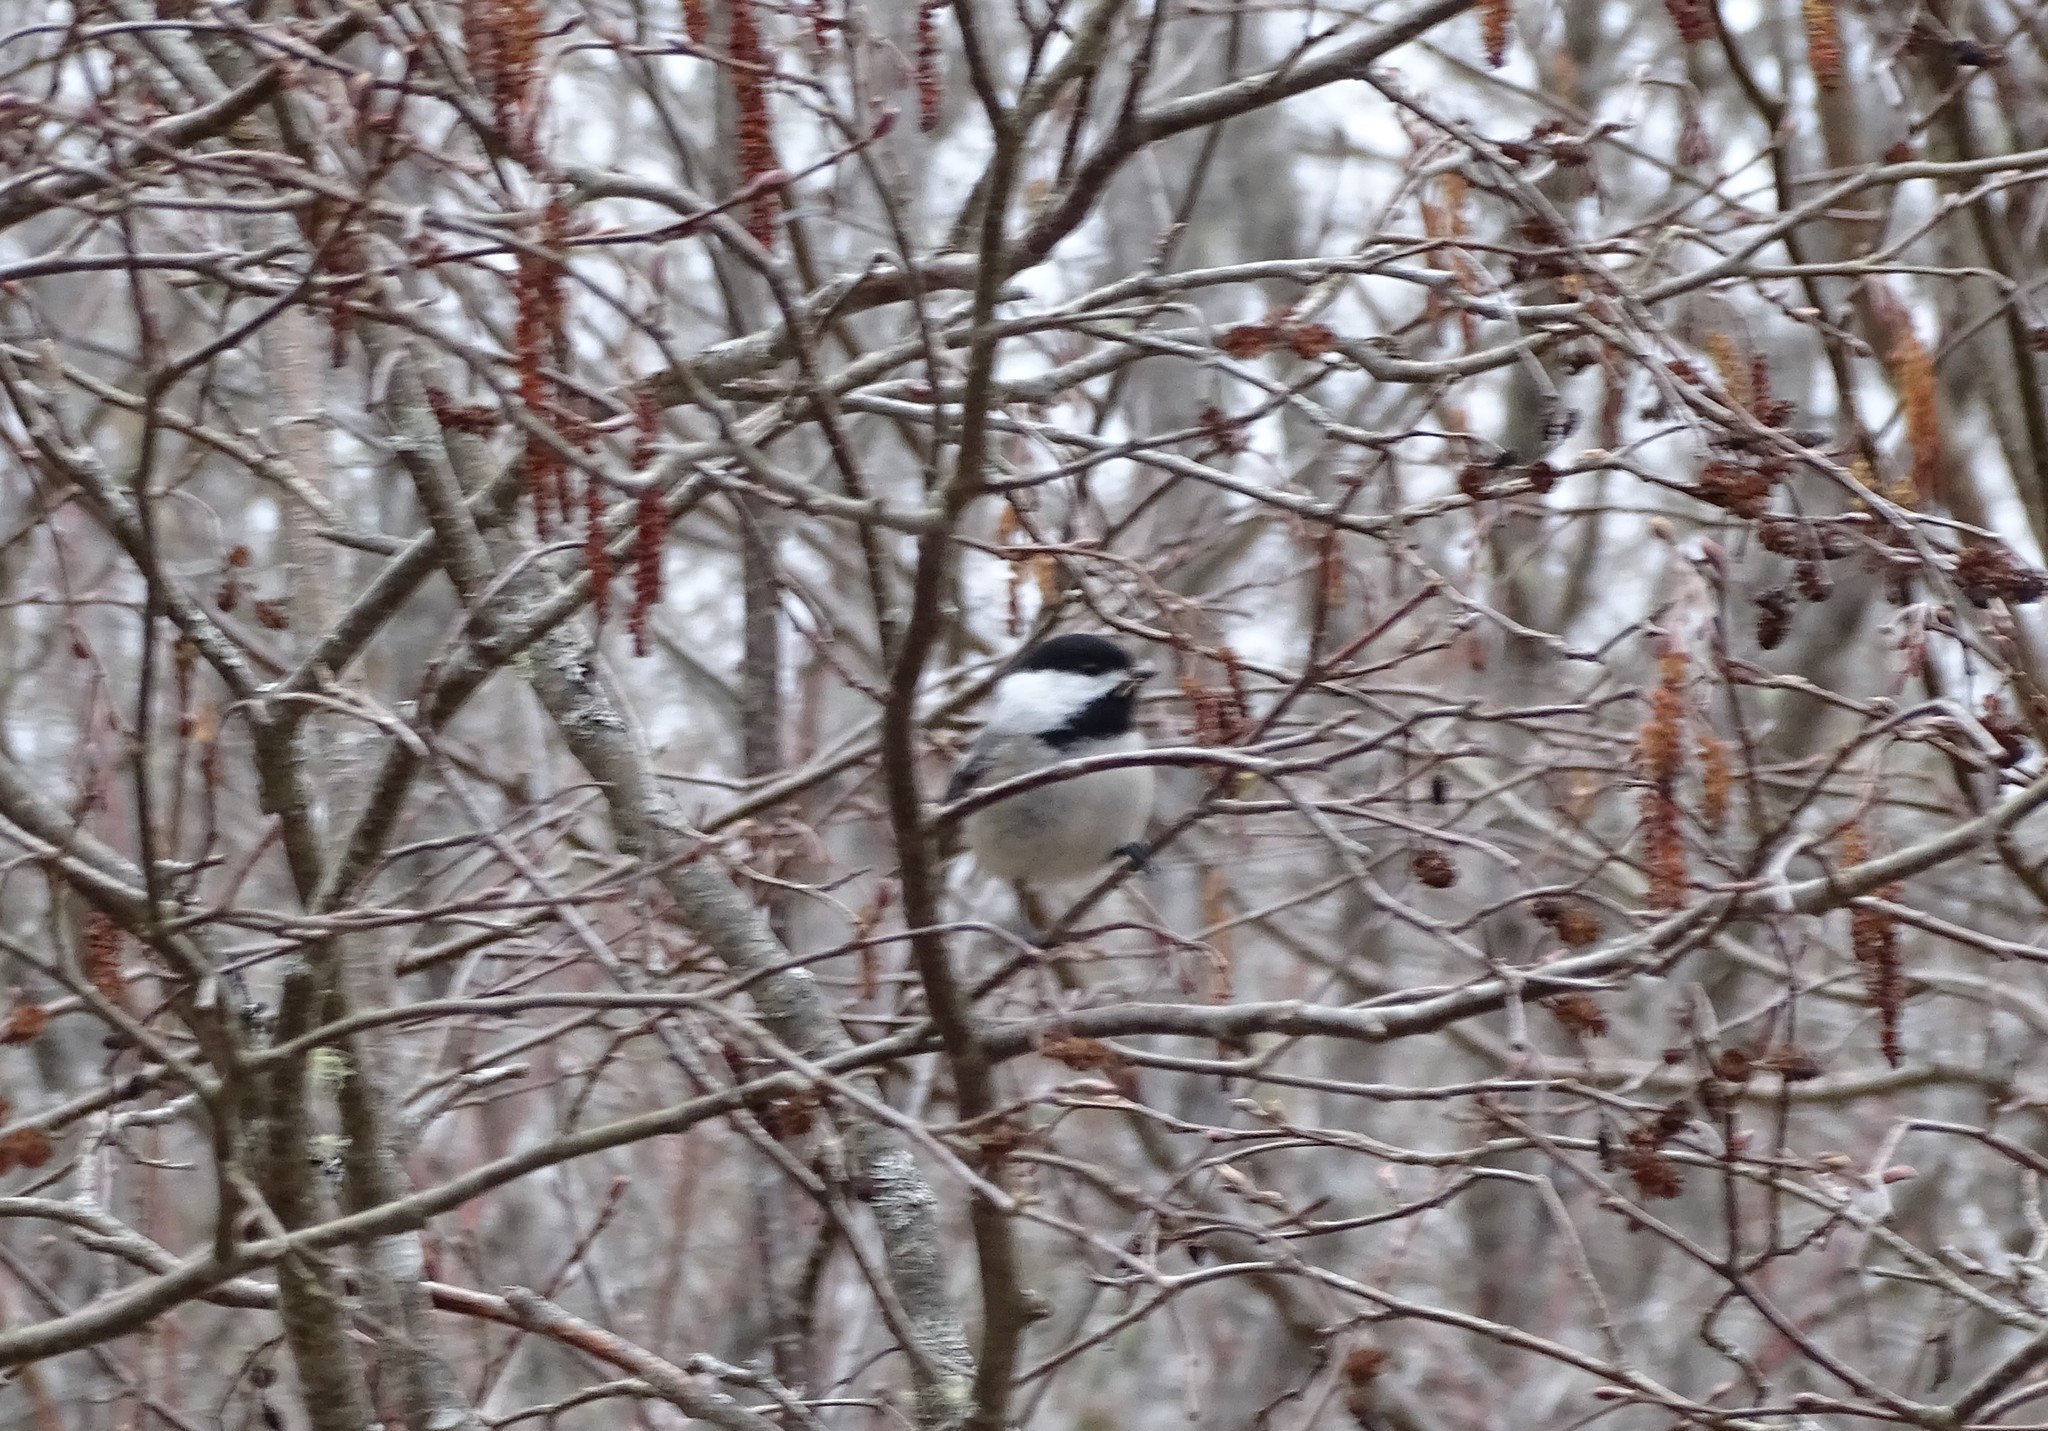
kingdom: Animalia
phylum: Chordata
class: Aves
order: Passeriformes
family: Paridae
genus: Poecile
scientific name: Poecile atricapillus
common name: Black-capped chickadee
